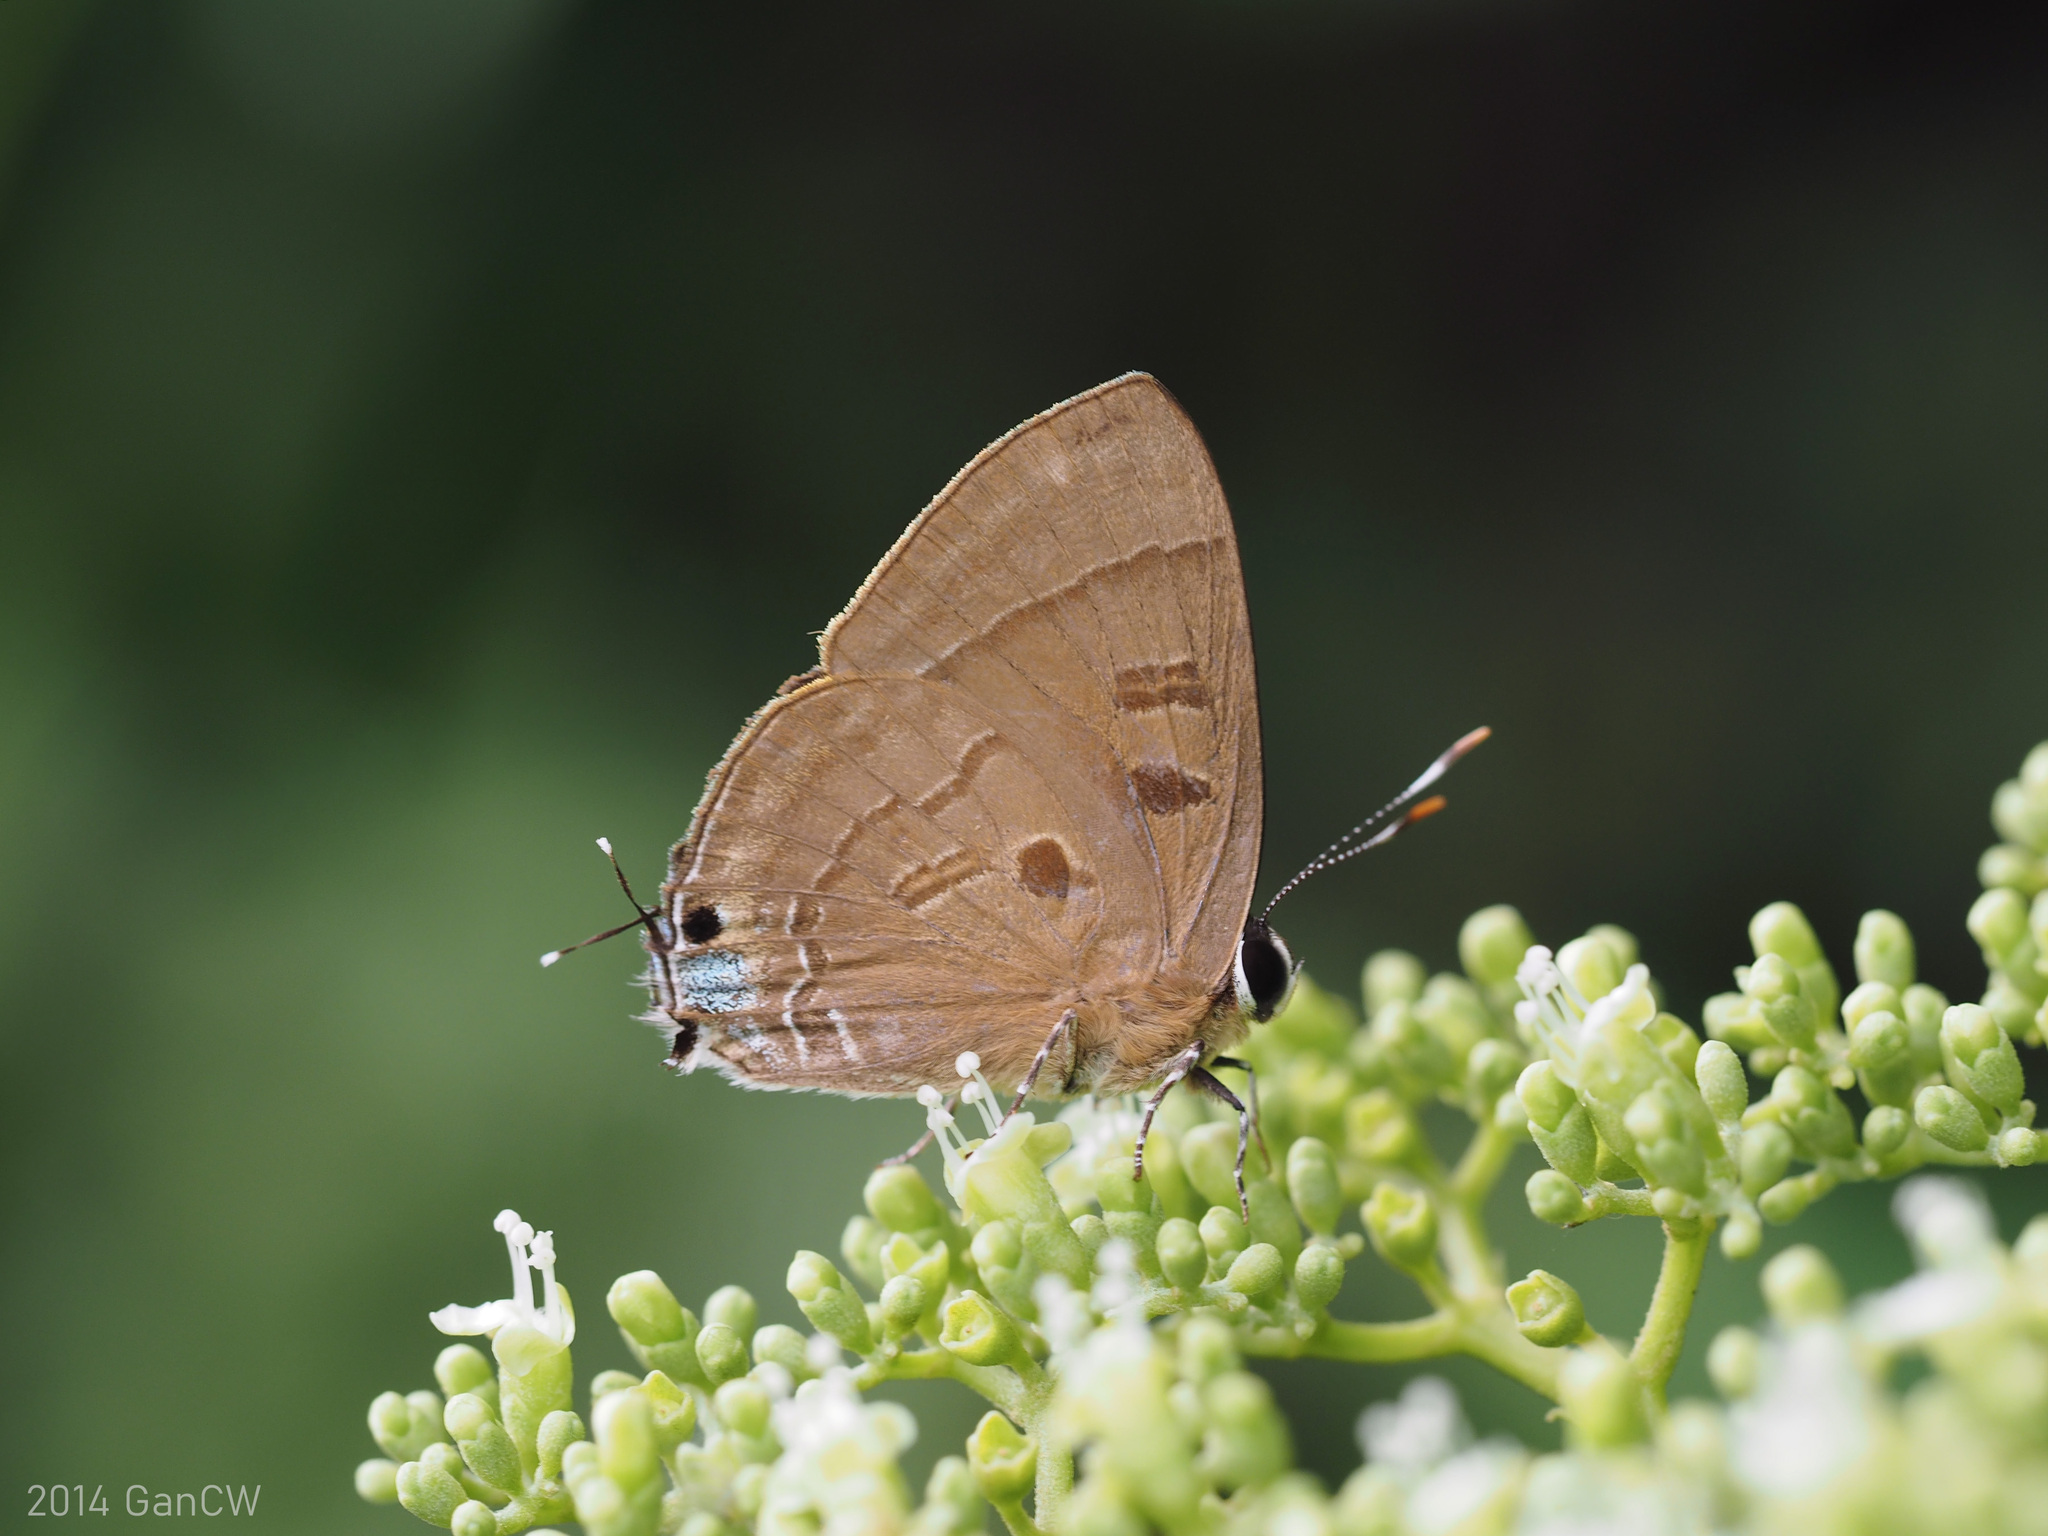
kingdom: Animalia
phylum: Arthropoda
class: Insecta
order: Lepidoptera
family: Lycaenidae
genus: Rapala
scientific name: Rapala pheretima
